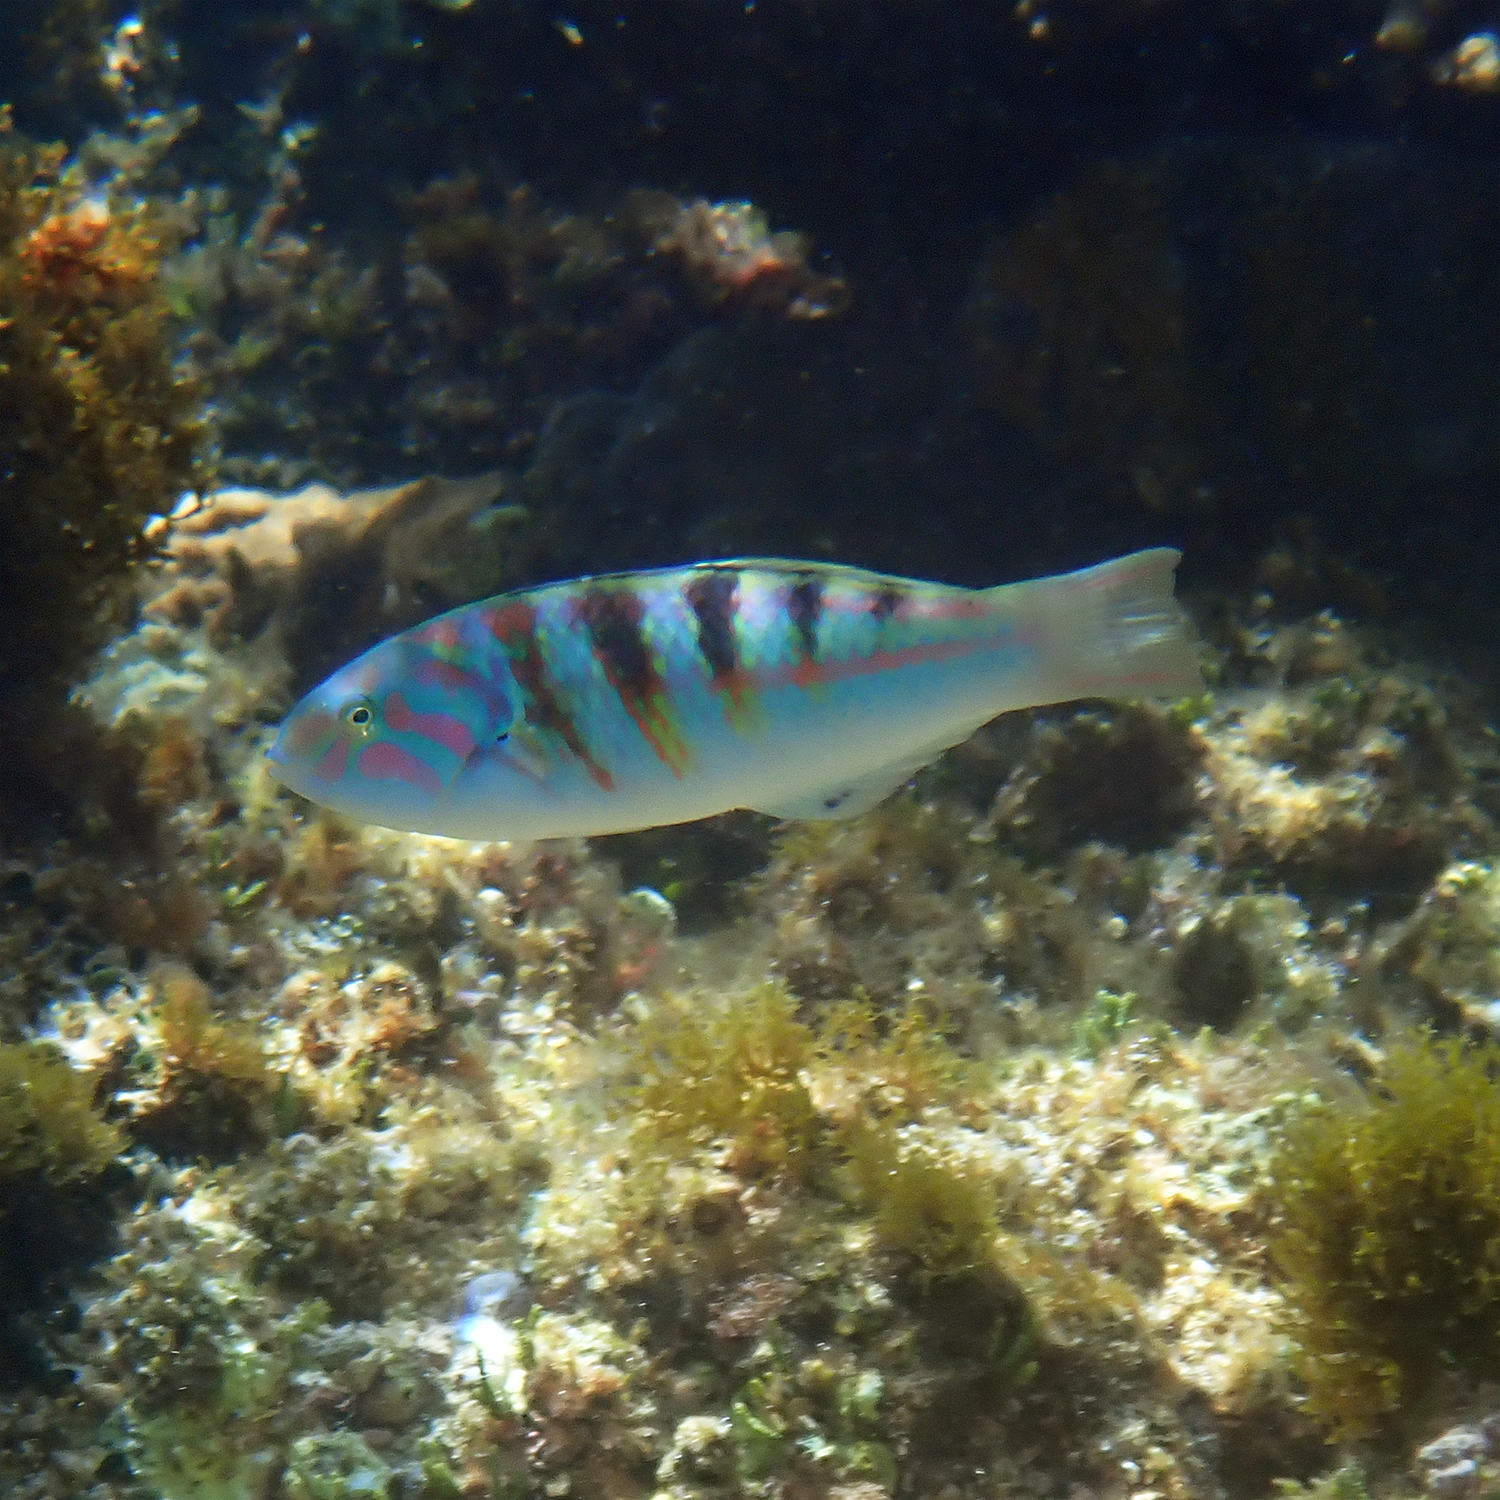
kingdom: Animalia
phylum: Chordata
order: Perciformes
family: Labridae
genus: Thalassoma
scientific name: Thalassoma hardwicke
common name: Sixbar wrasse
